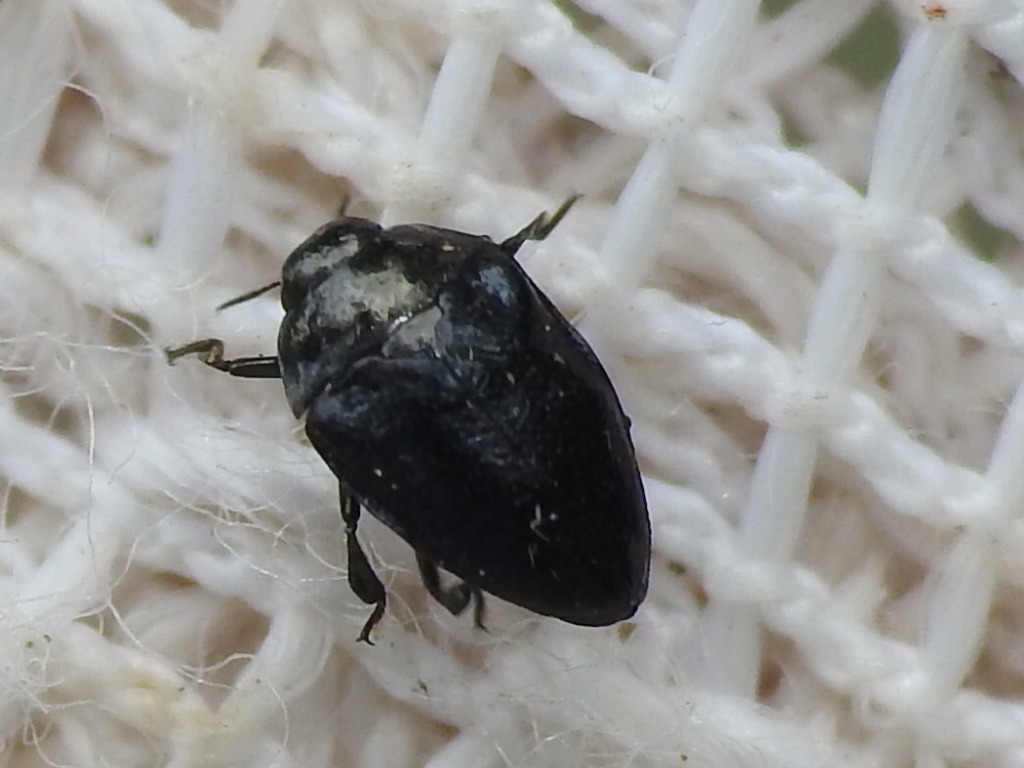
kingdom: Animalia
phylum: Arthropoda
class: Insecta
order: Coleoptera
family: Buprestidae
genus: Pachyschelus
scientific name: Pachyschelus laevigatus
